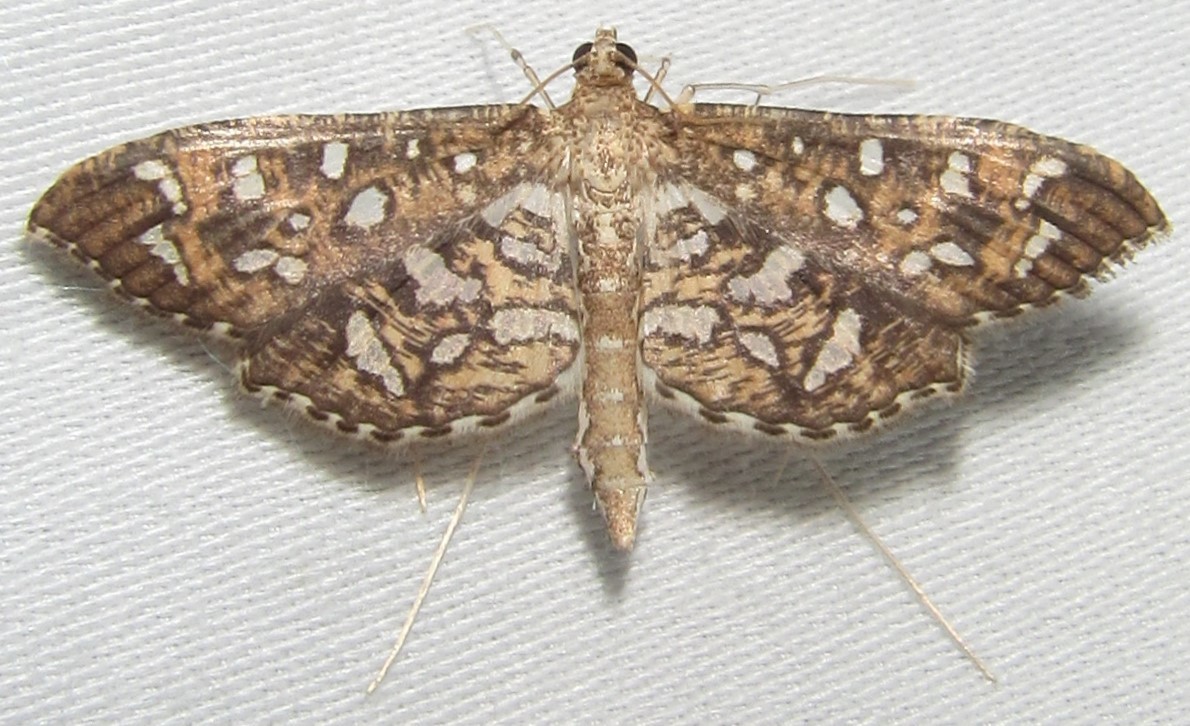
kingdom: Animalia
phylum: Arthropoda
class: Insecta
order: Lepidoptera
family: Crambidae
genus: Nausinoe
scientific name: Nausinoe geometralis
